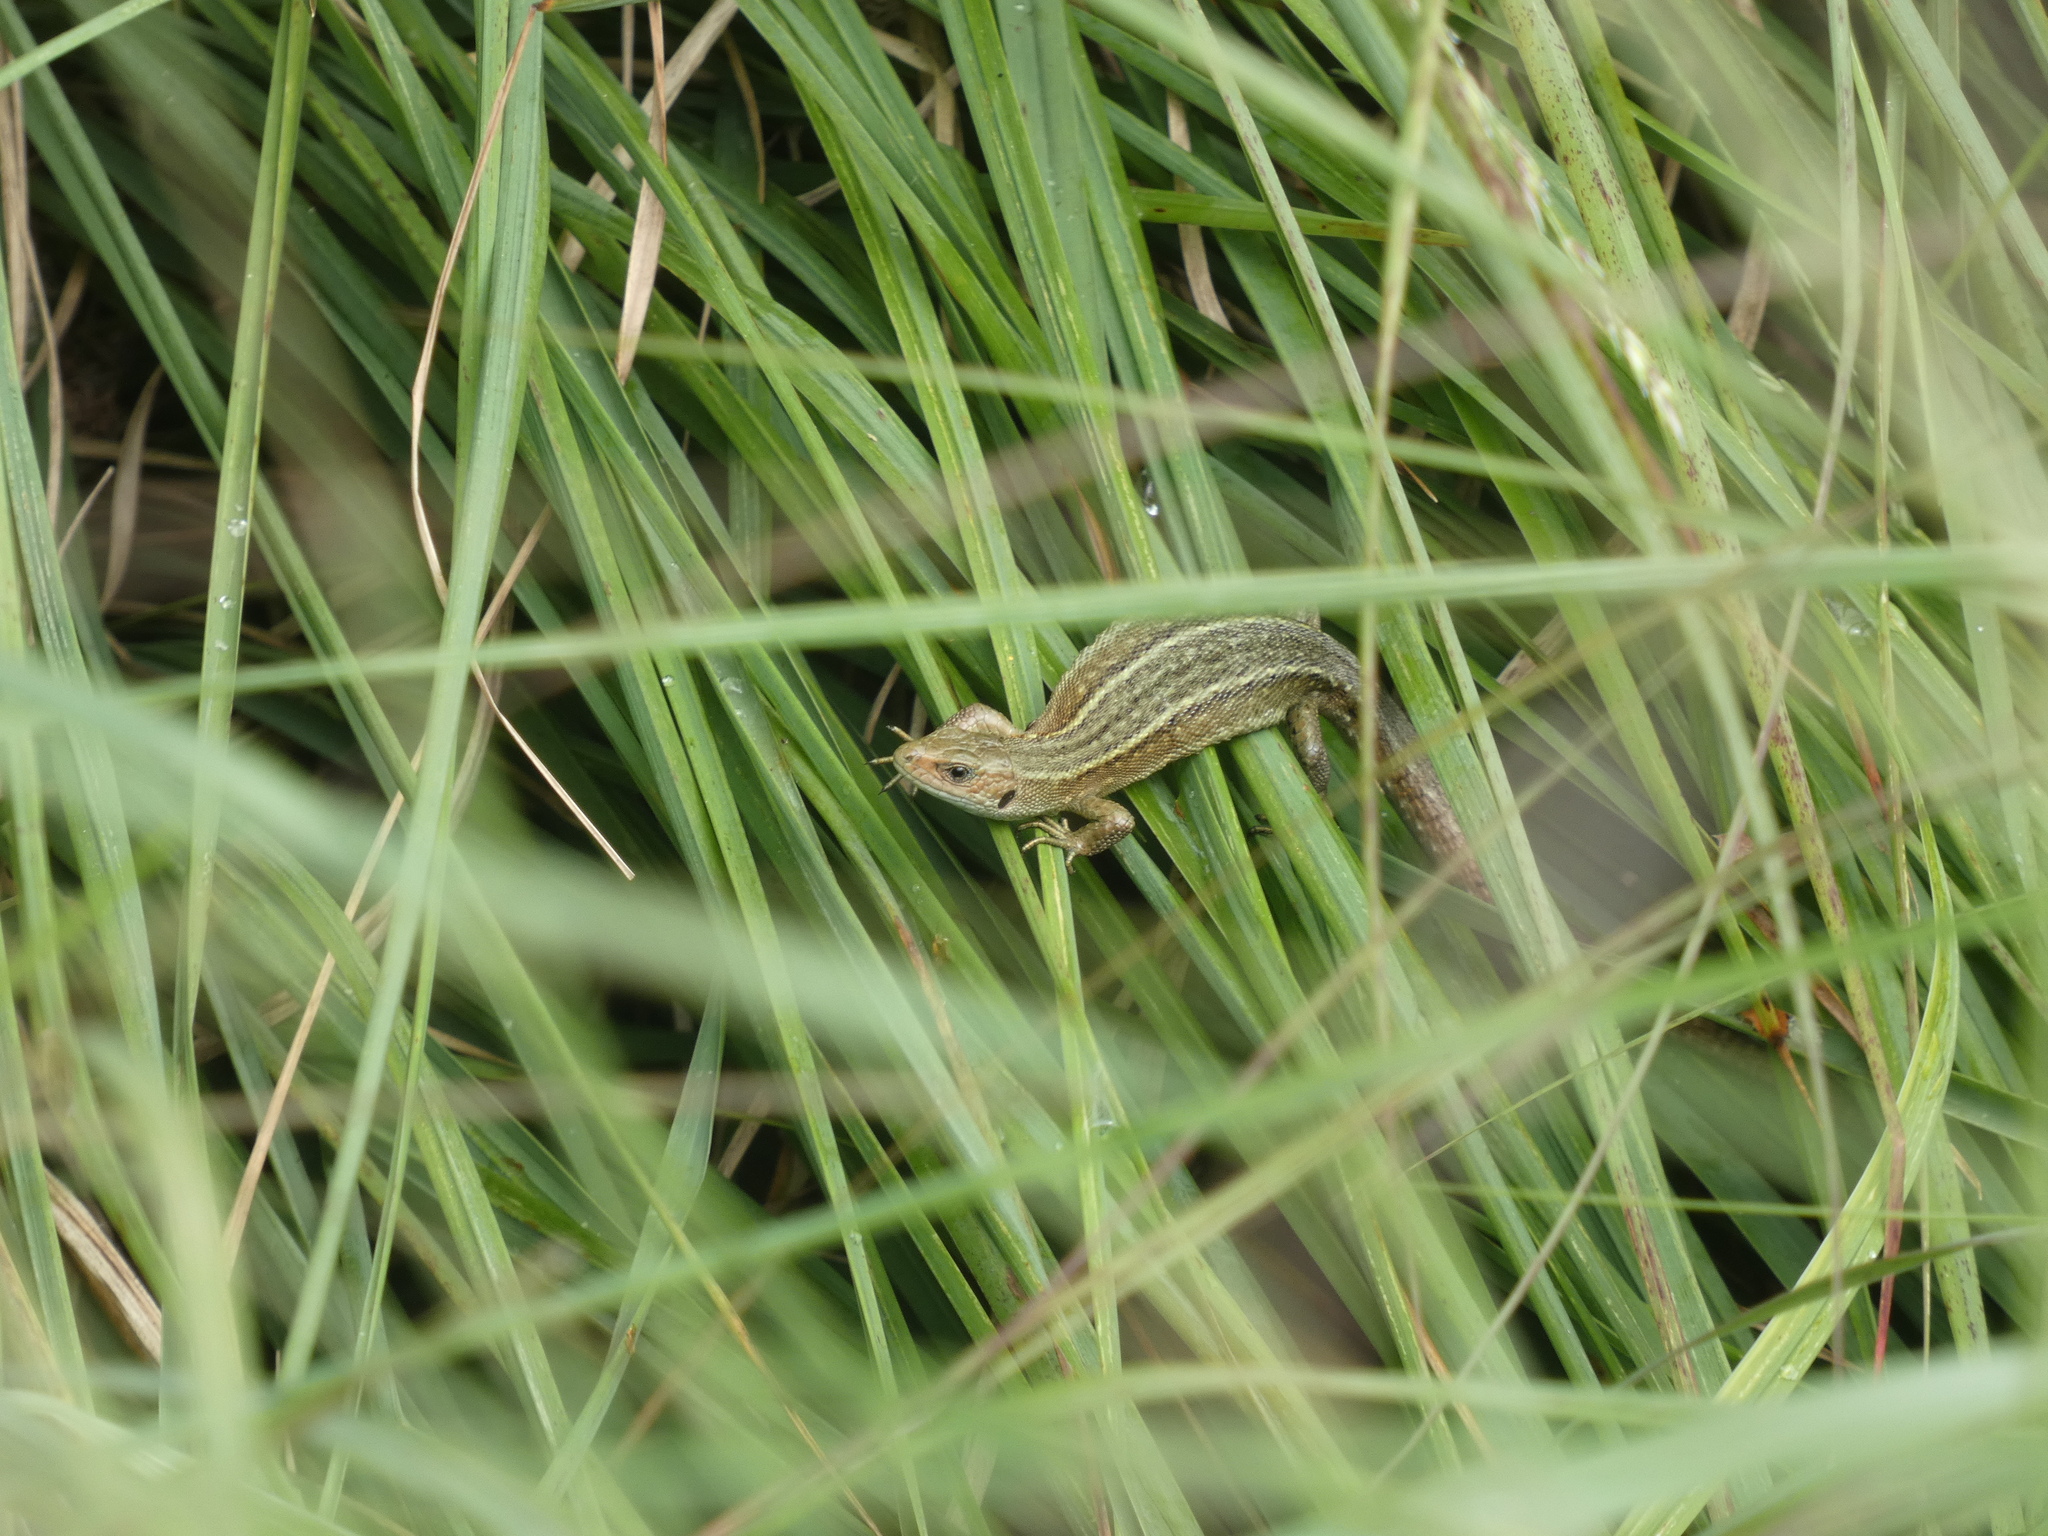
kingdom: Animalia
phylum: Chordata
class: Squamata
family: Lacertidae
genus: Zootoca
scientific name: Zootoca vivipara
